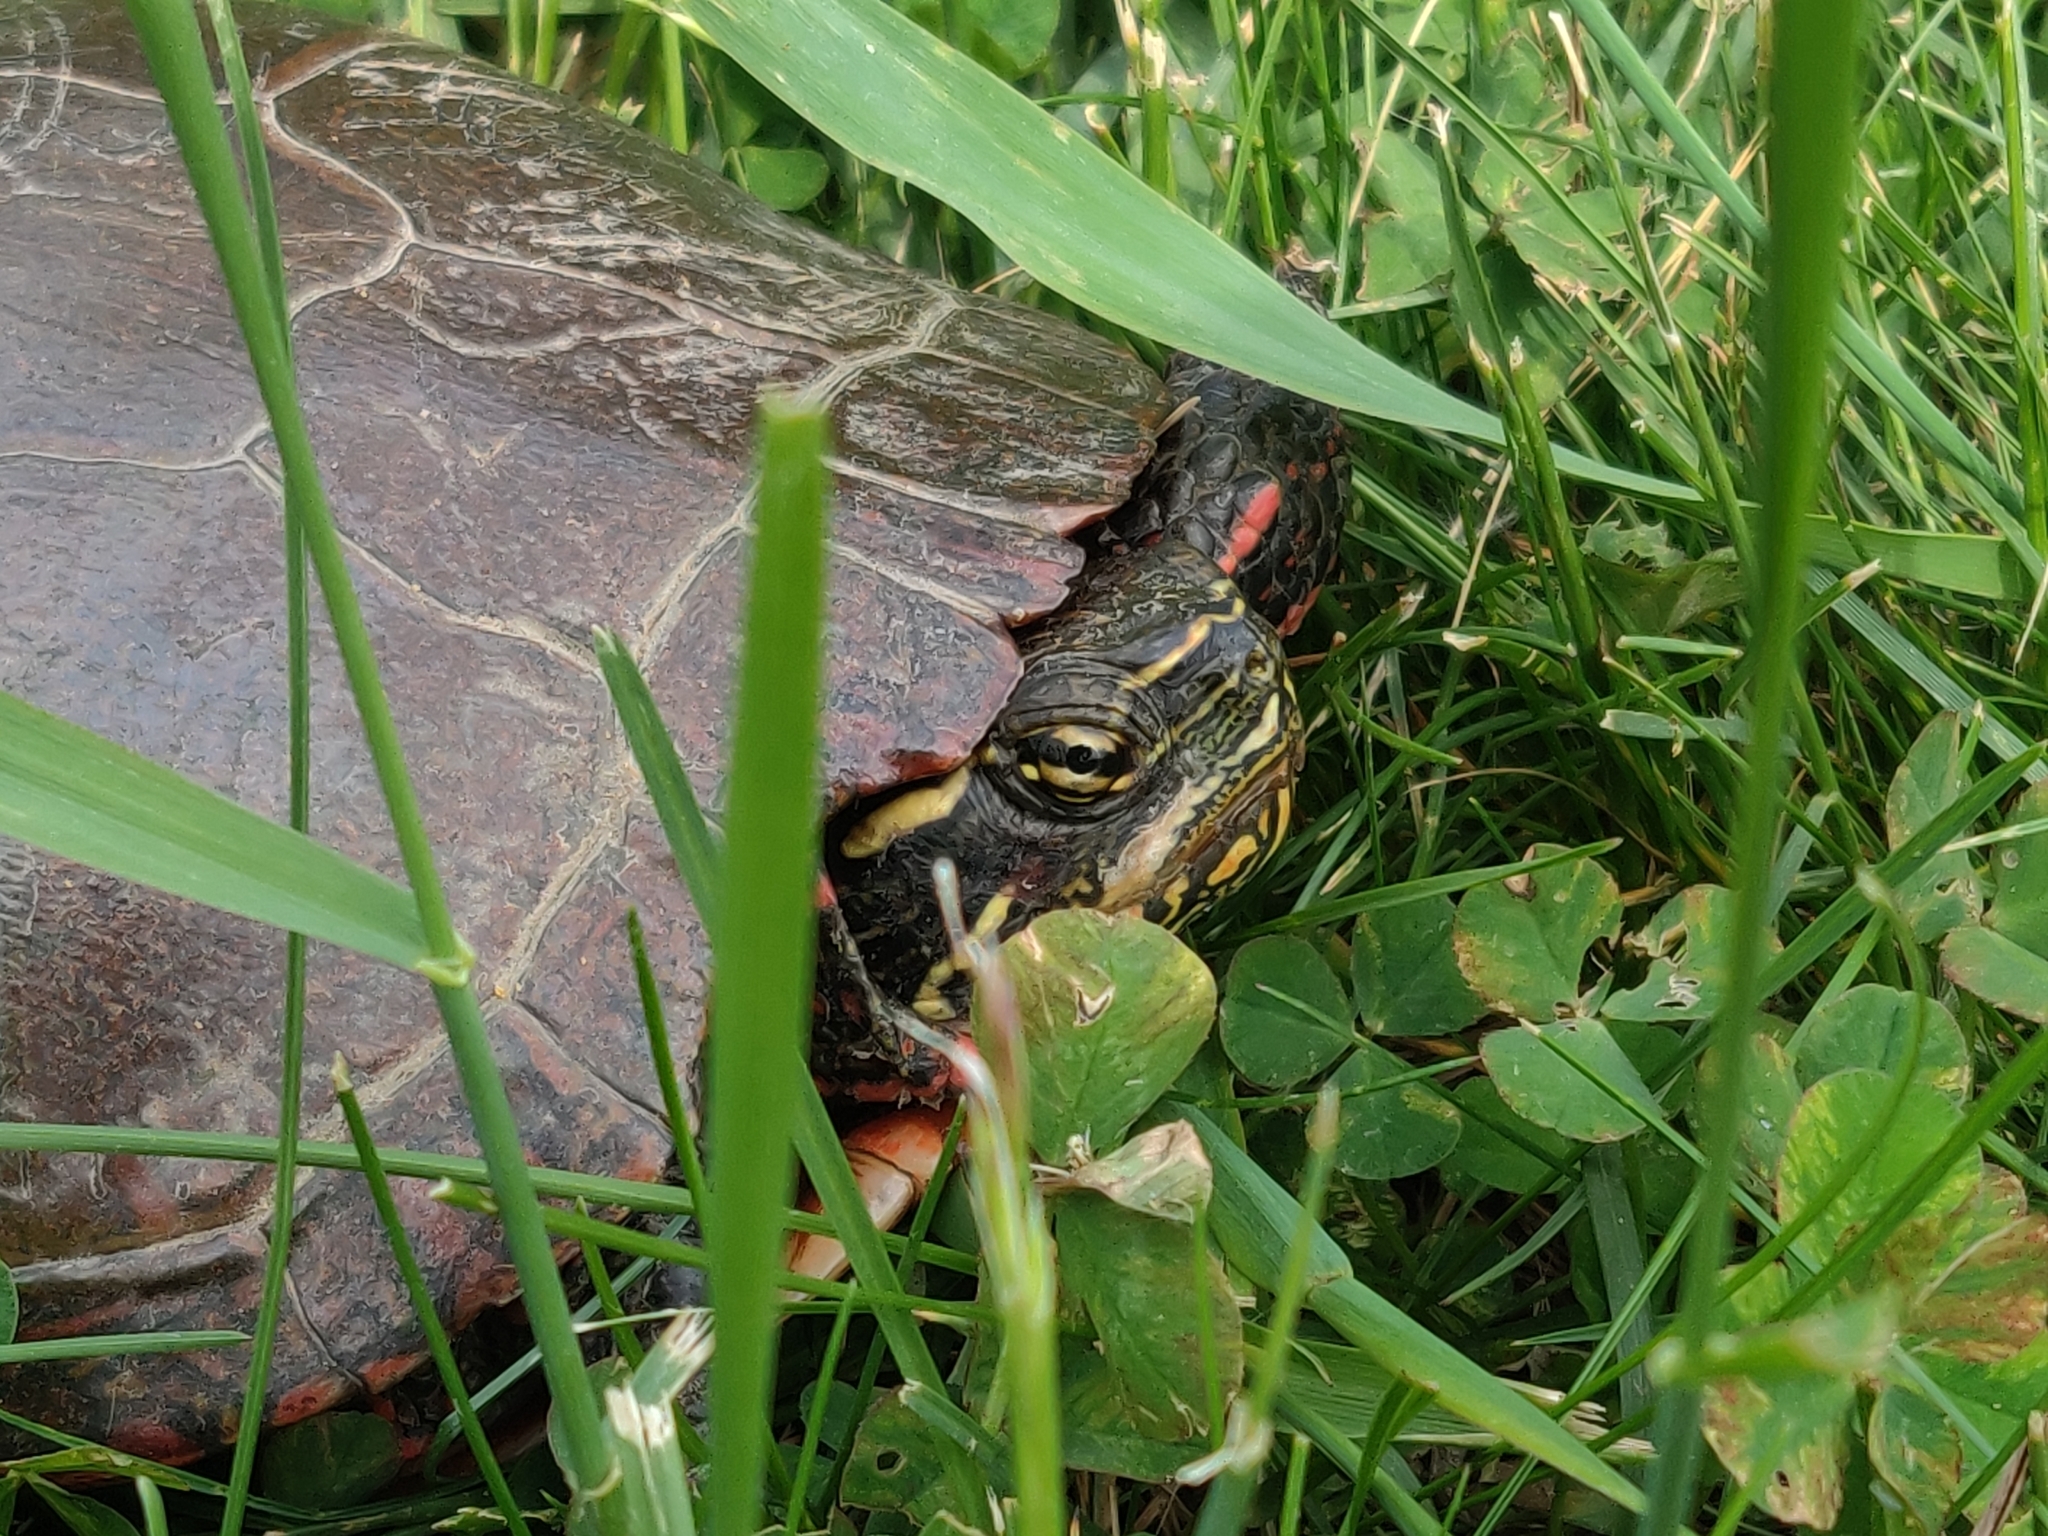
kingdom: Animalia
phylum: Chordata
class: Testudines
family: Emydidae
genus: Chrysemys
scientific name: Chrysemys picta
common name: Painted turtle
